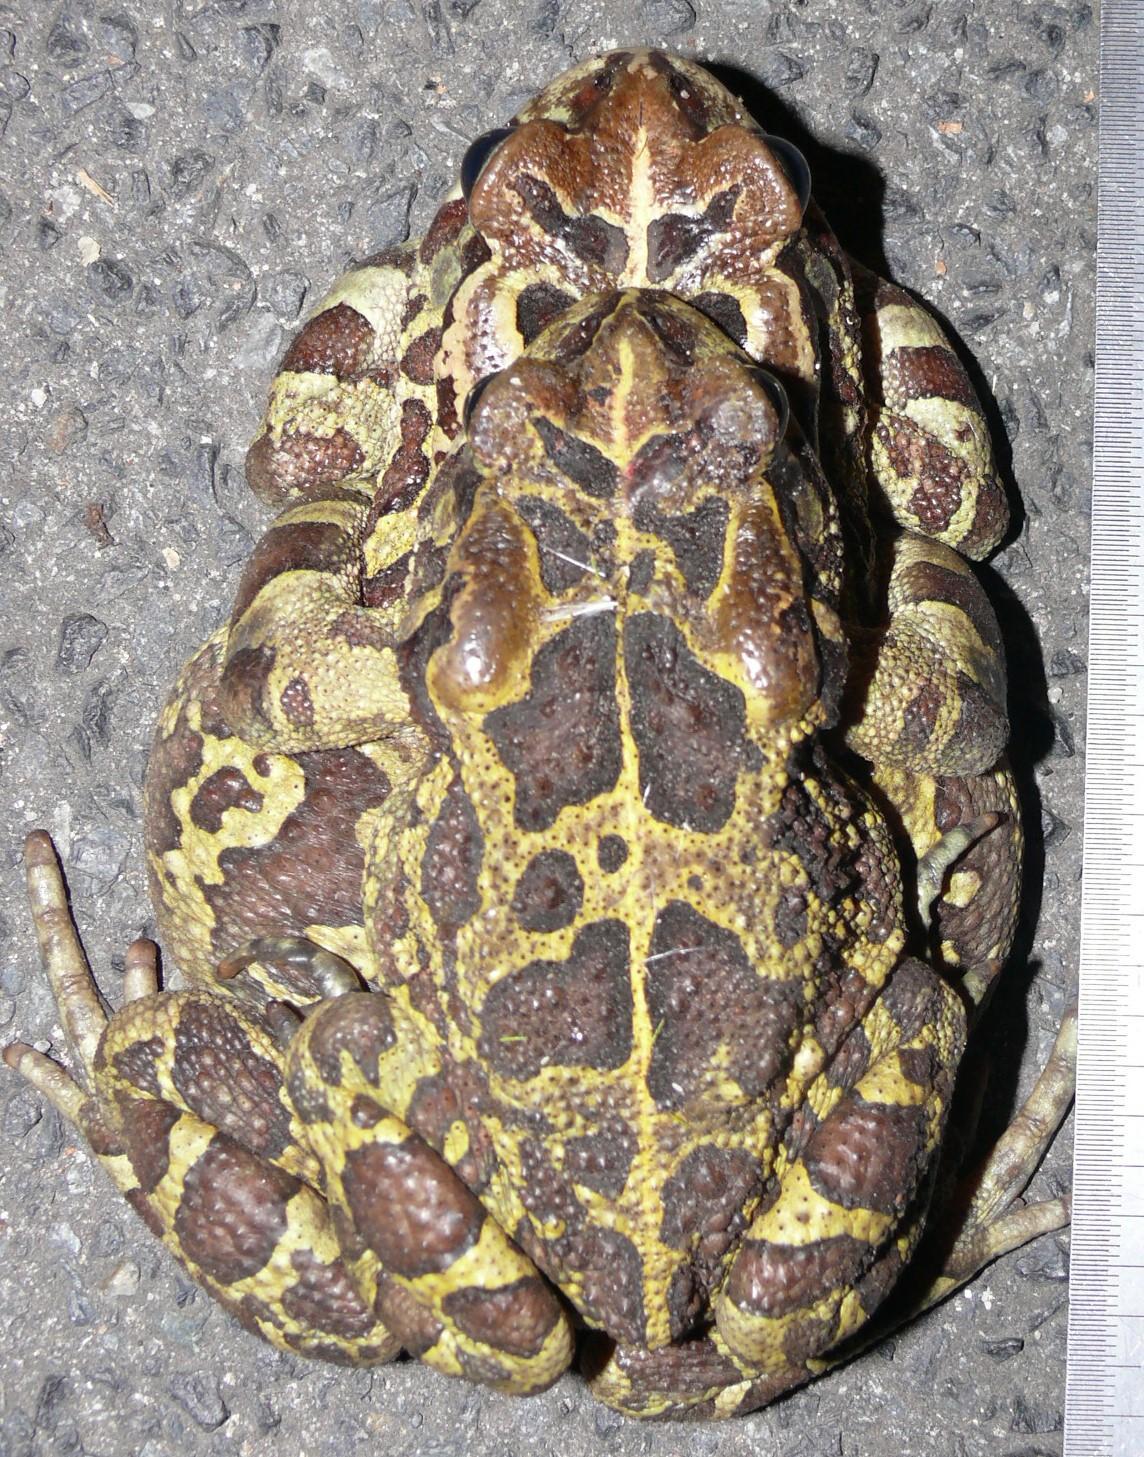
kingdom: Animalia
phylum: Chordata
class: Amphibia
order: Anura
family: Bufonidae
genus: Sclerophrys
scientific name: Sclerophrys pantherina
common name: Panther toad
